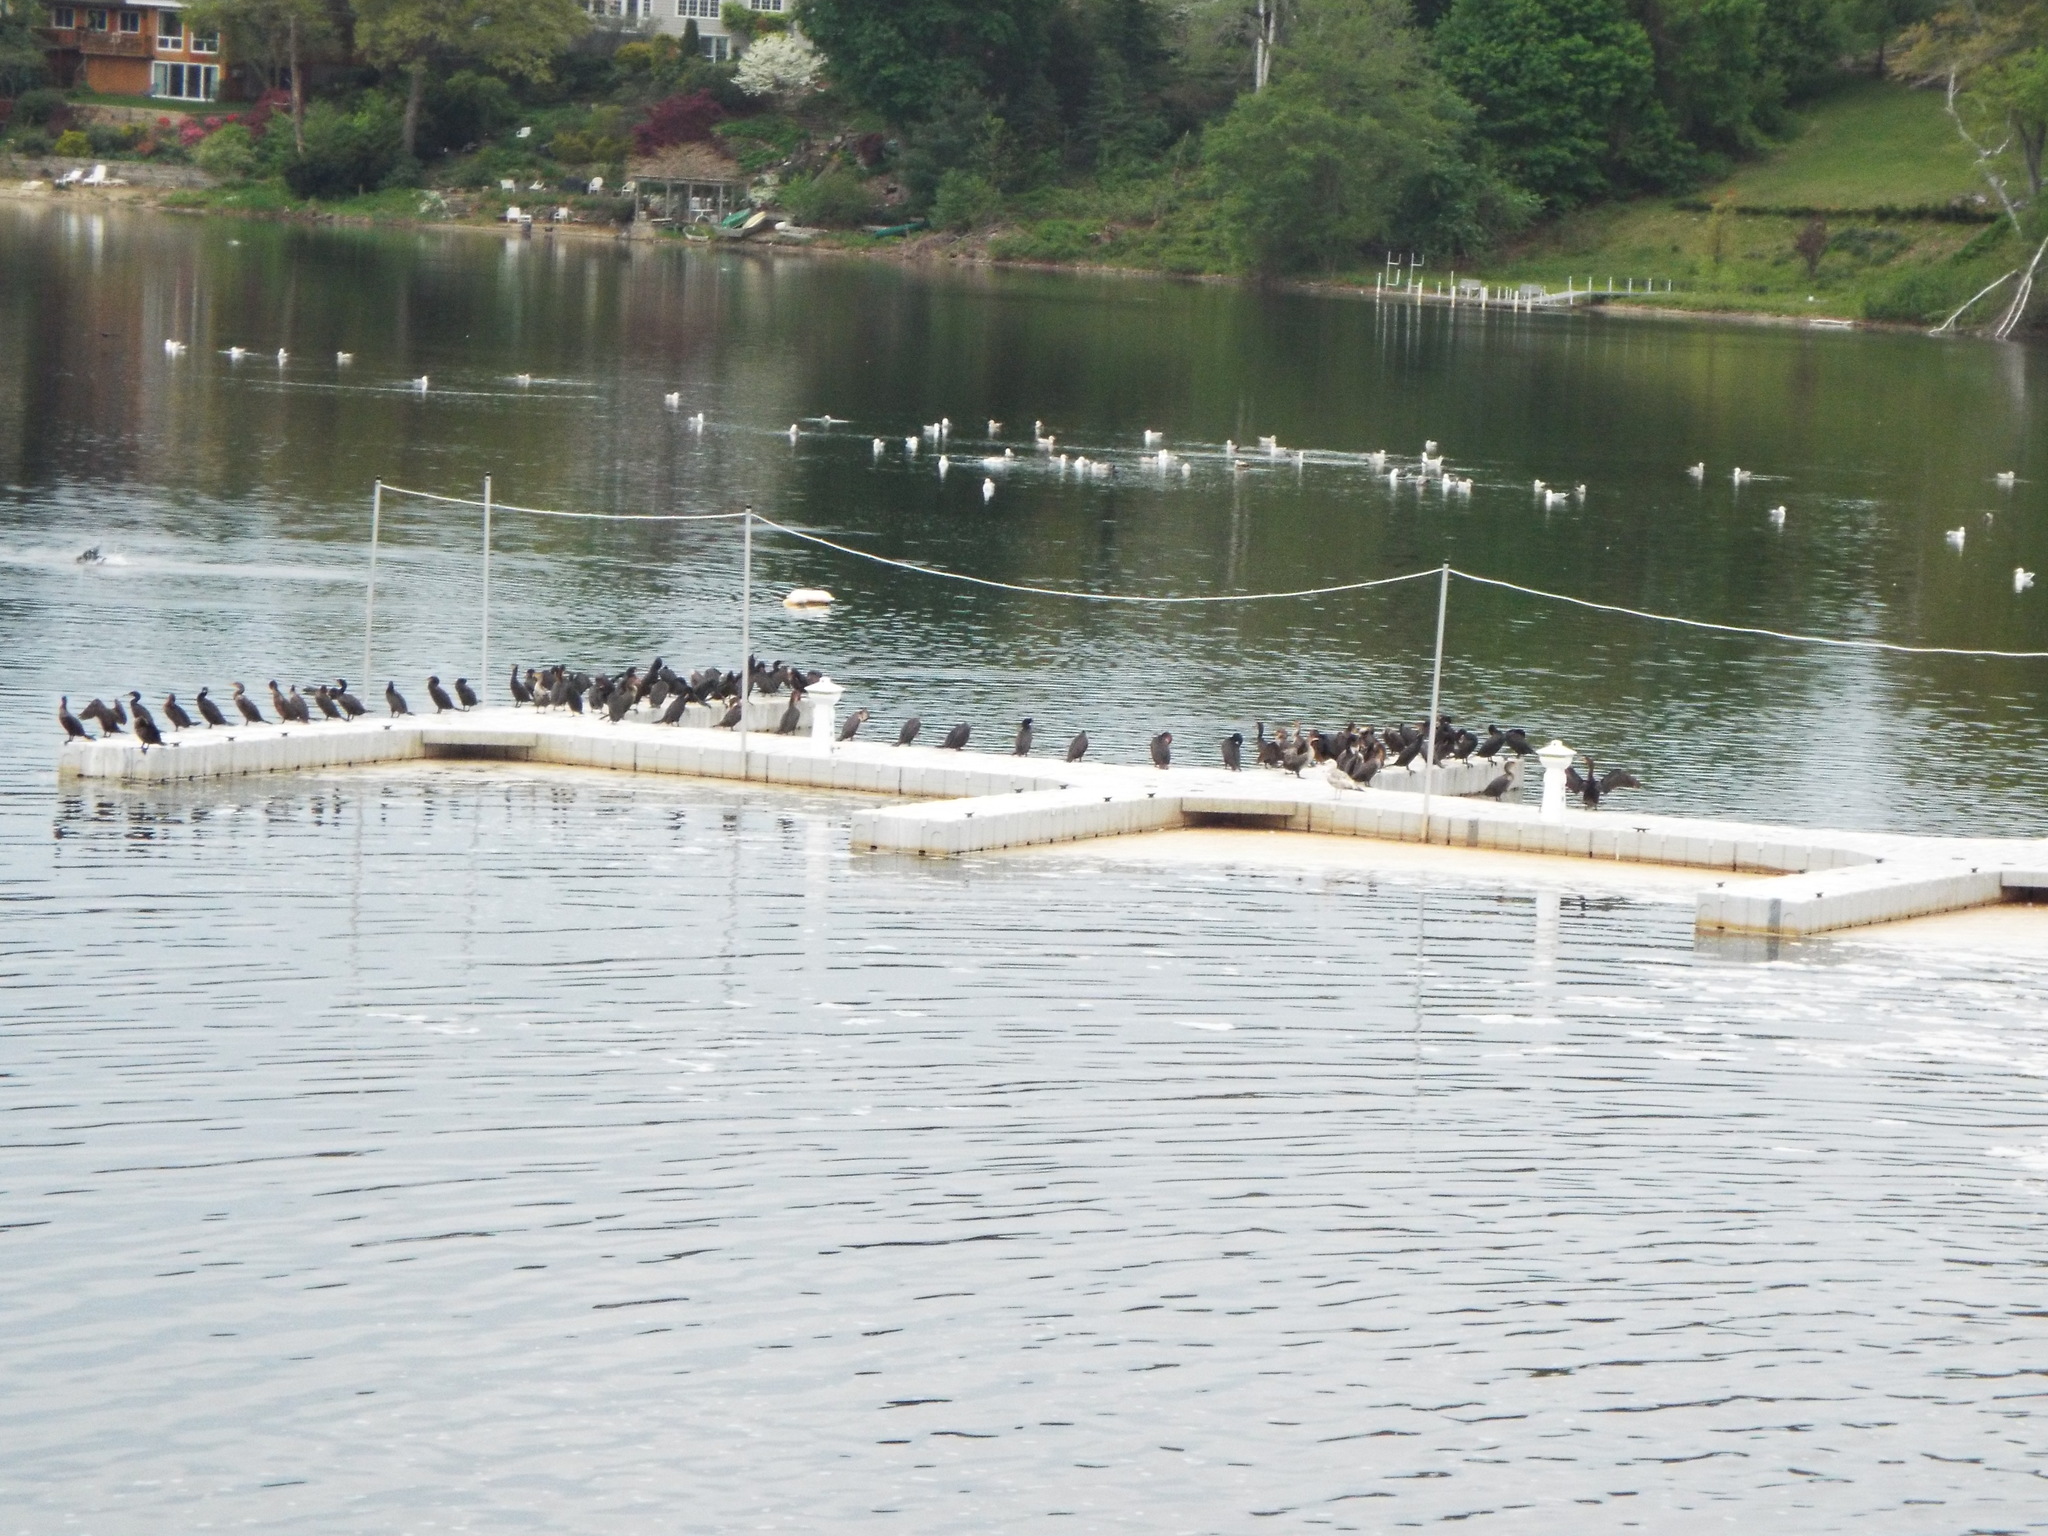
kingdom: Animalia
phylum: Chordata
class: Aves
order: Suliformes
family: Phalacrocoracidae
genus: Phalacrocorax
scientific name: Phalacrocorax auritus
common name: Double-crested cormorant
